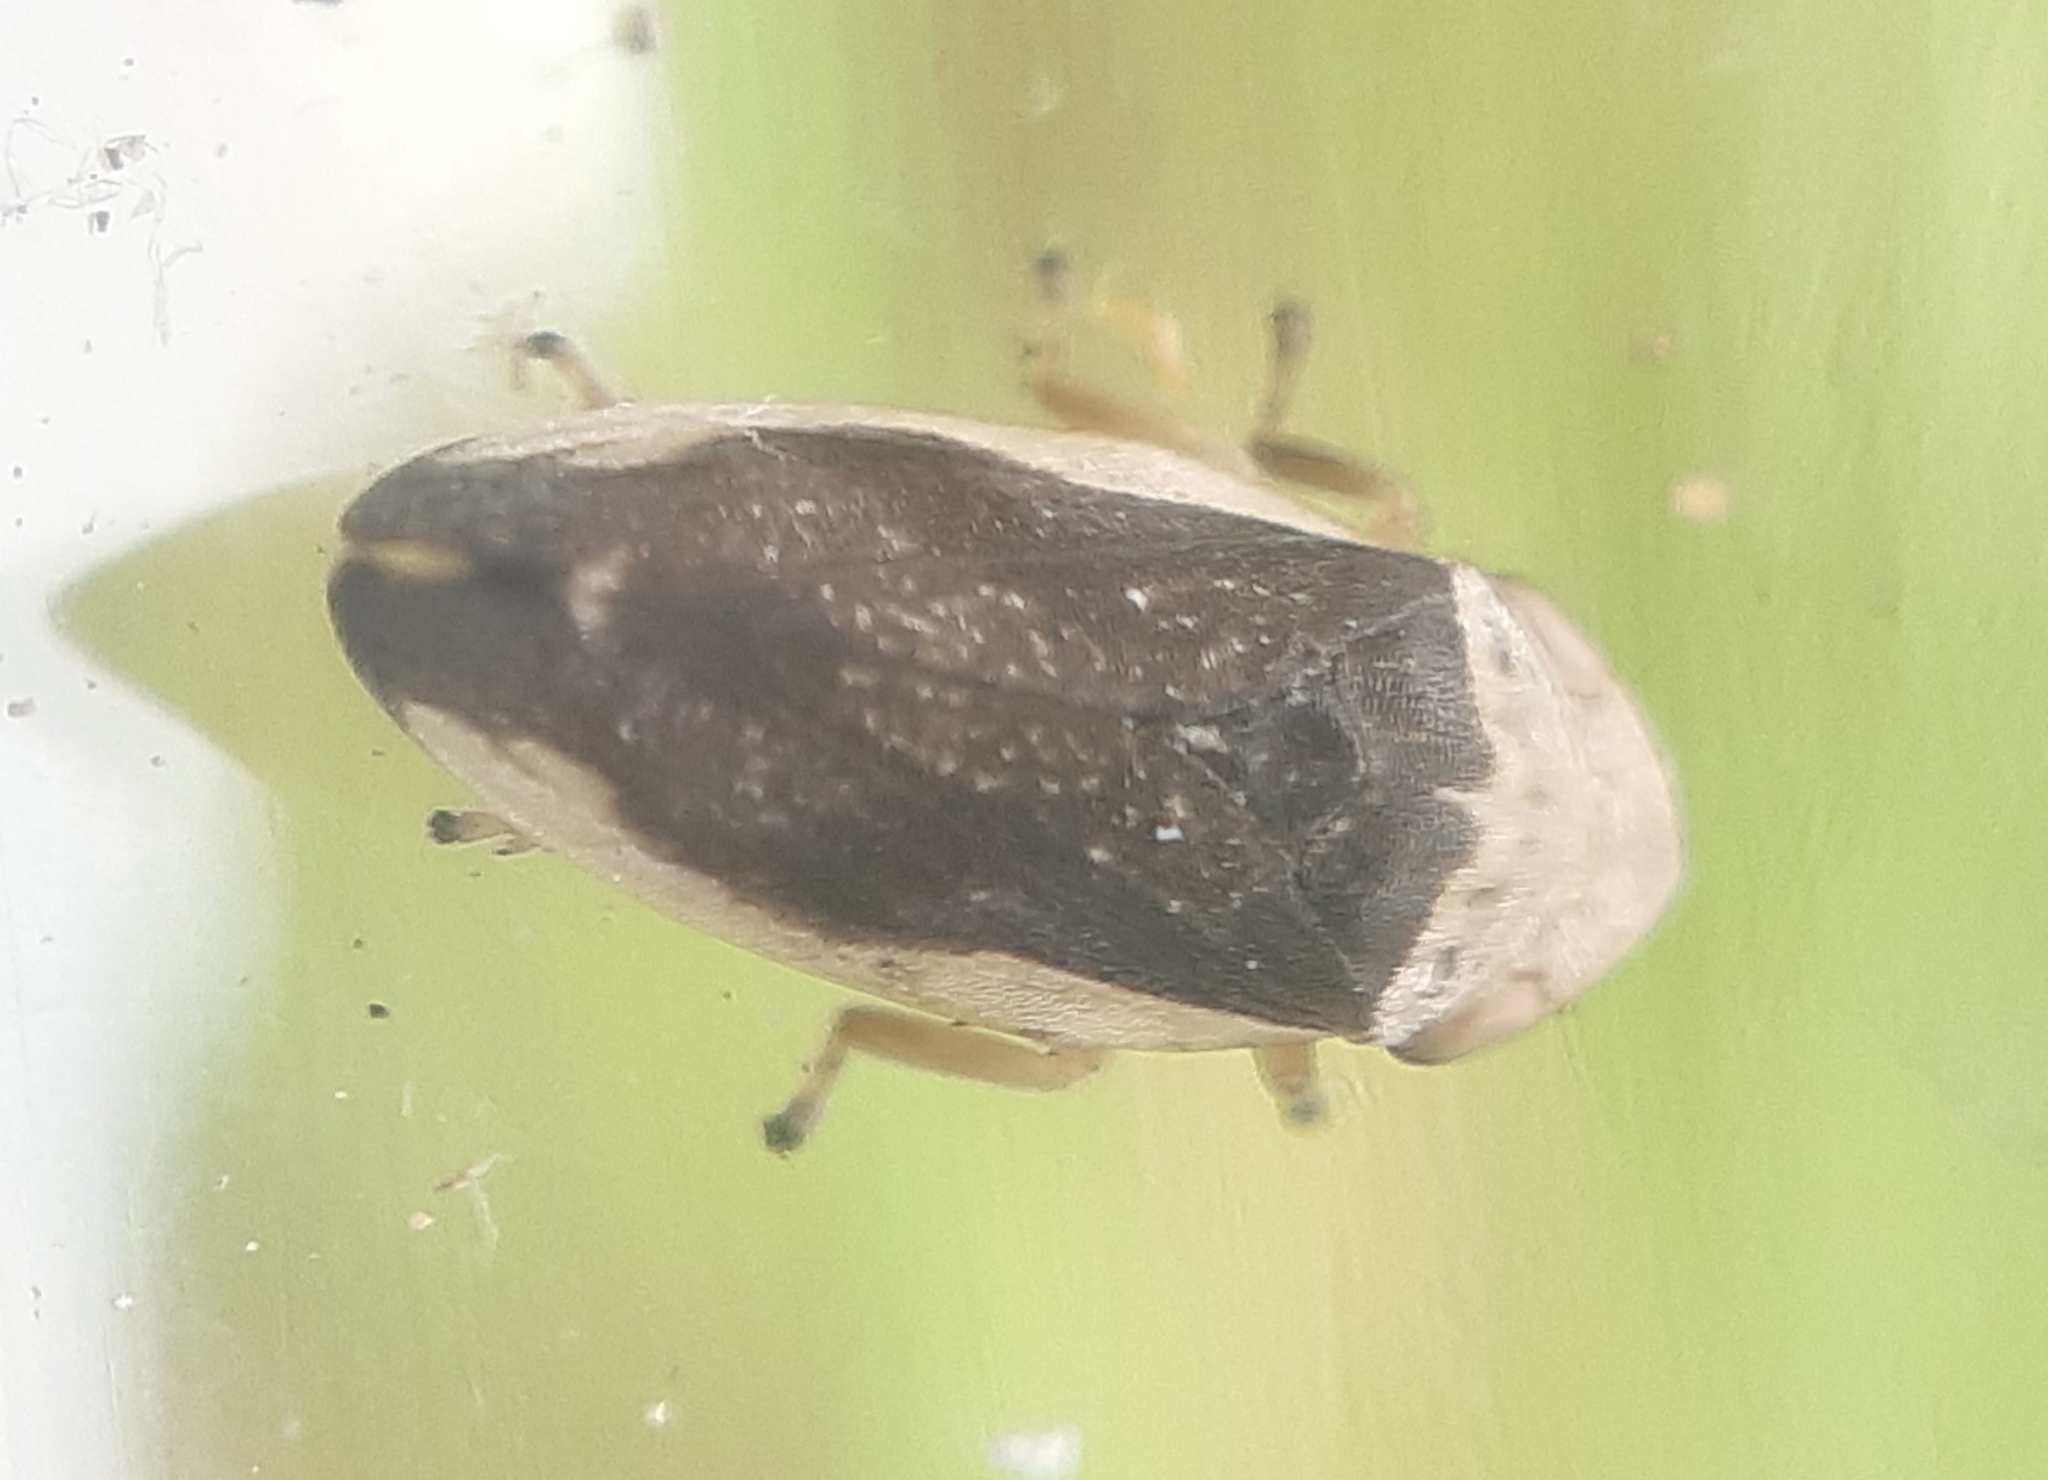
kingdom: Animalia
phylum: Arthropoda
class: Insecta
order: Hemiptera
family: Aphrophoridae
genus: Philaenus
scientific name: Philaenus spumarius
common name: Meadow spittlebug
